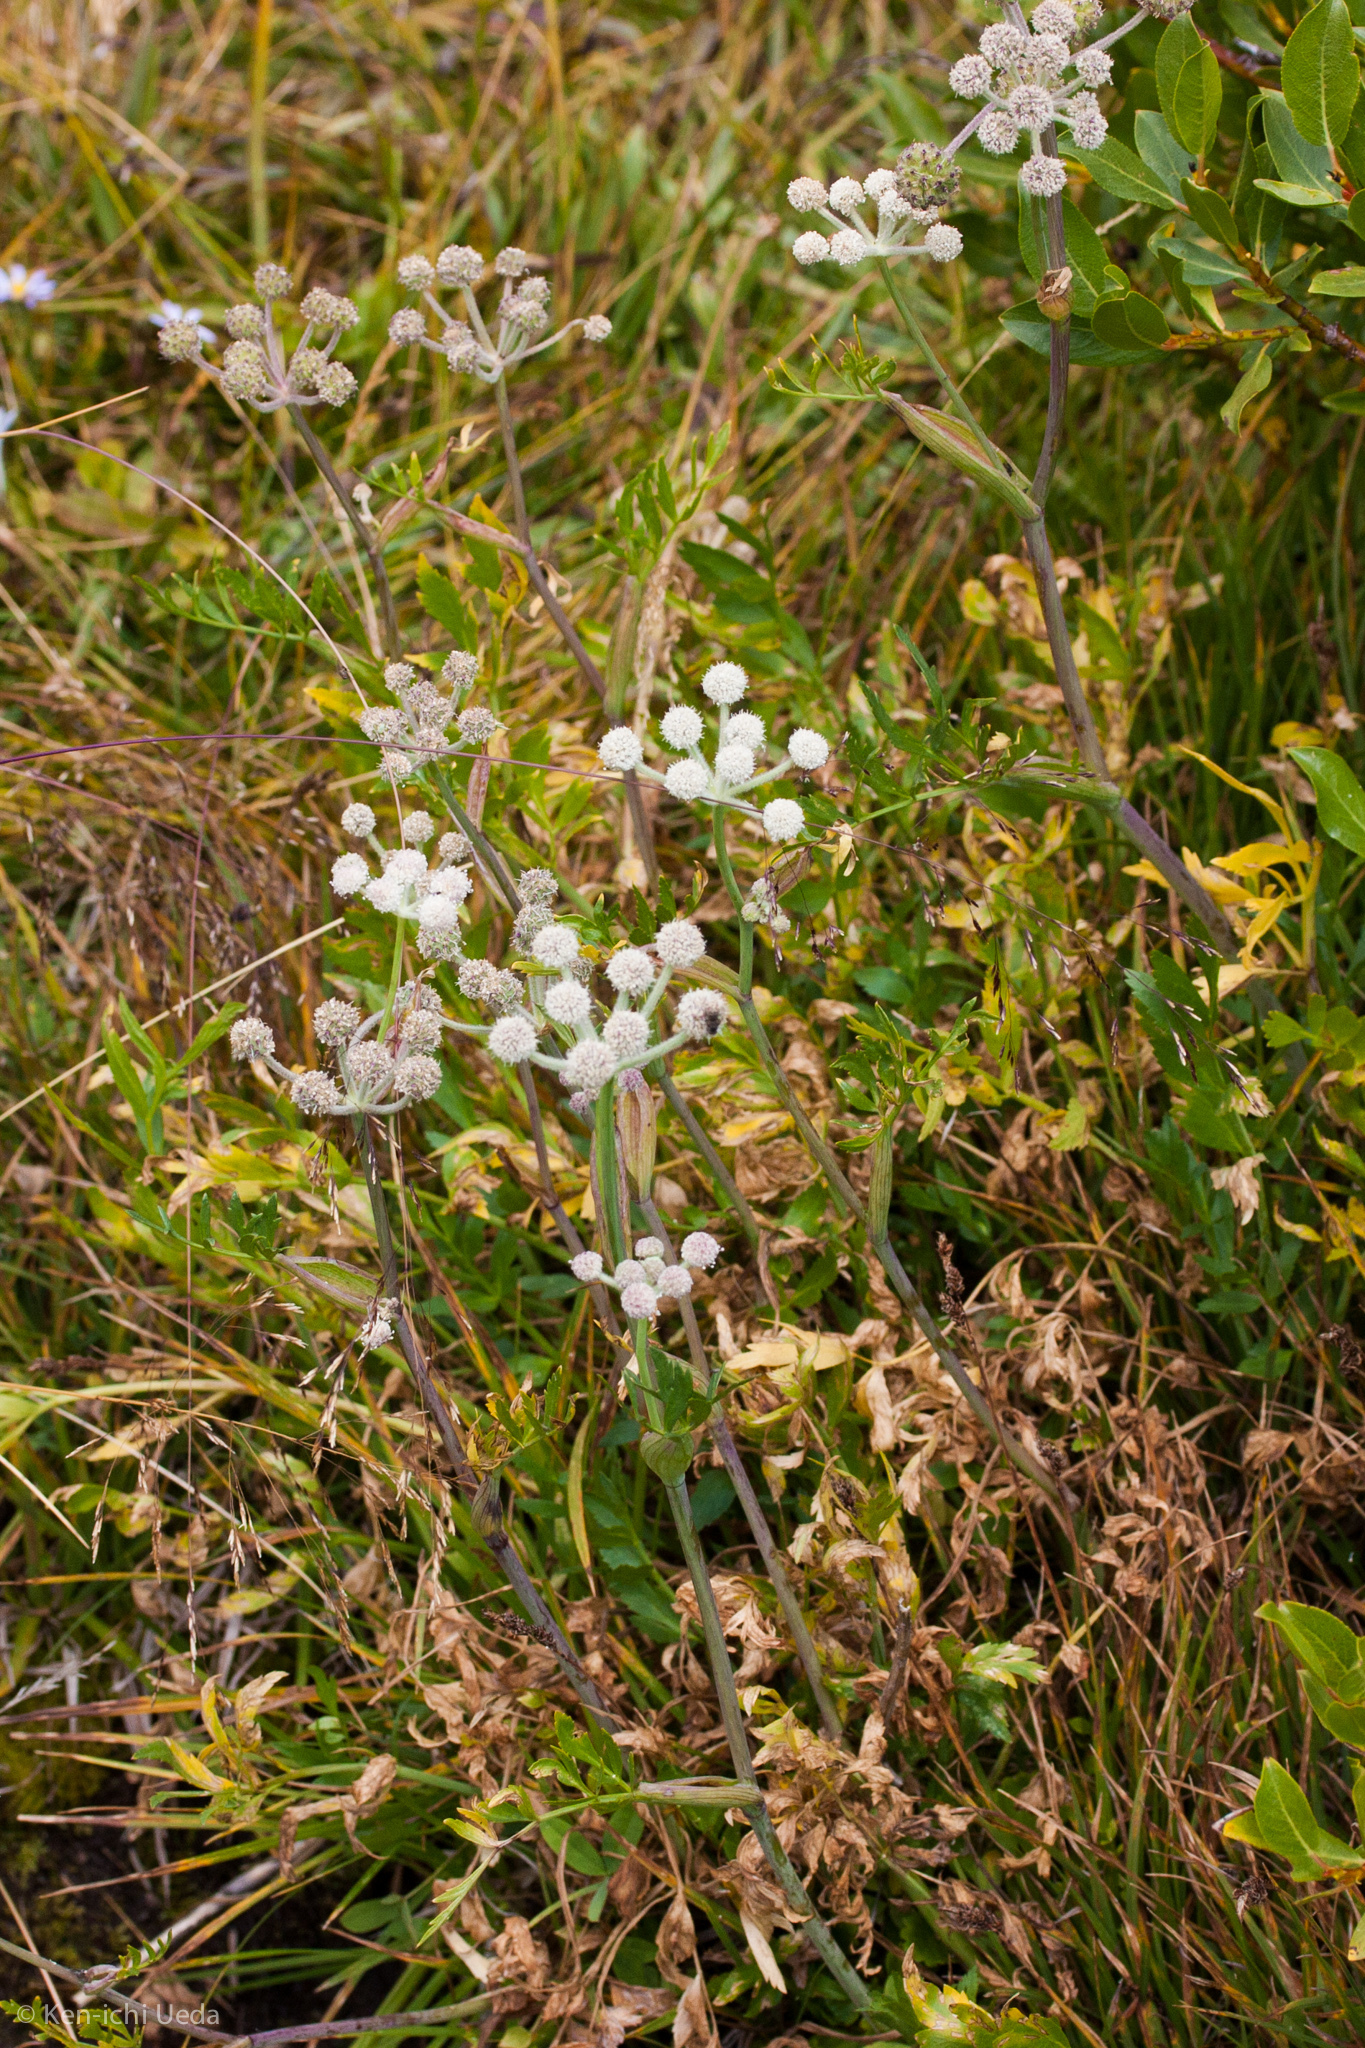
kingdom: Plantae
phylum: Tracheophyta
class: Magnoliopsida
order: Apiales
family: Apiaceae
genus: Angelica
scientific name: Angelica capitellata
